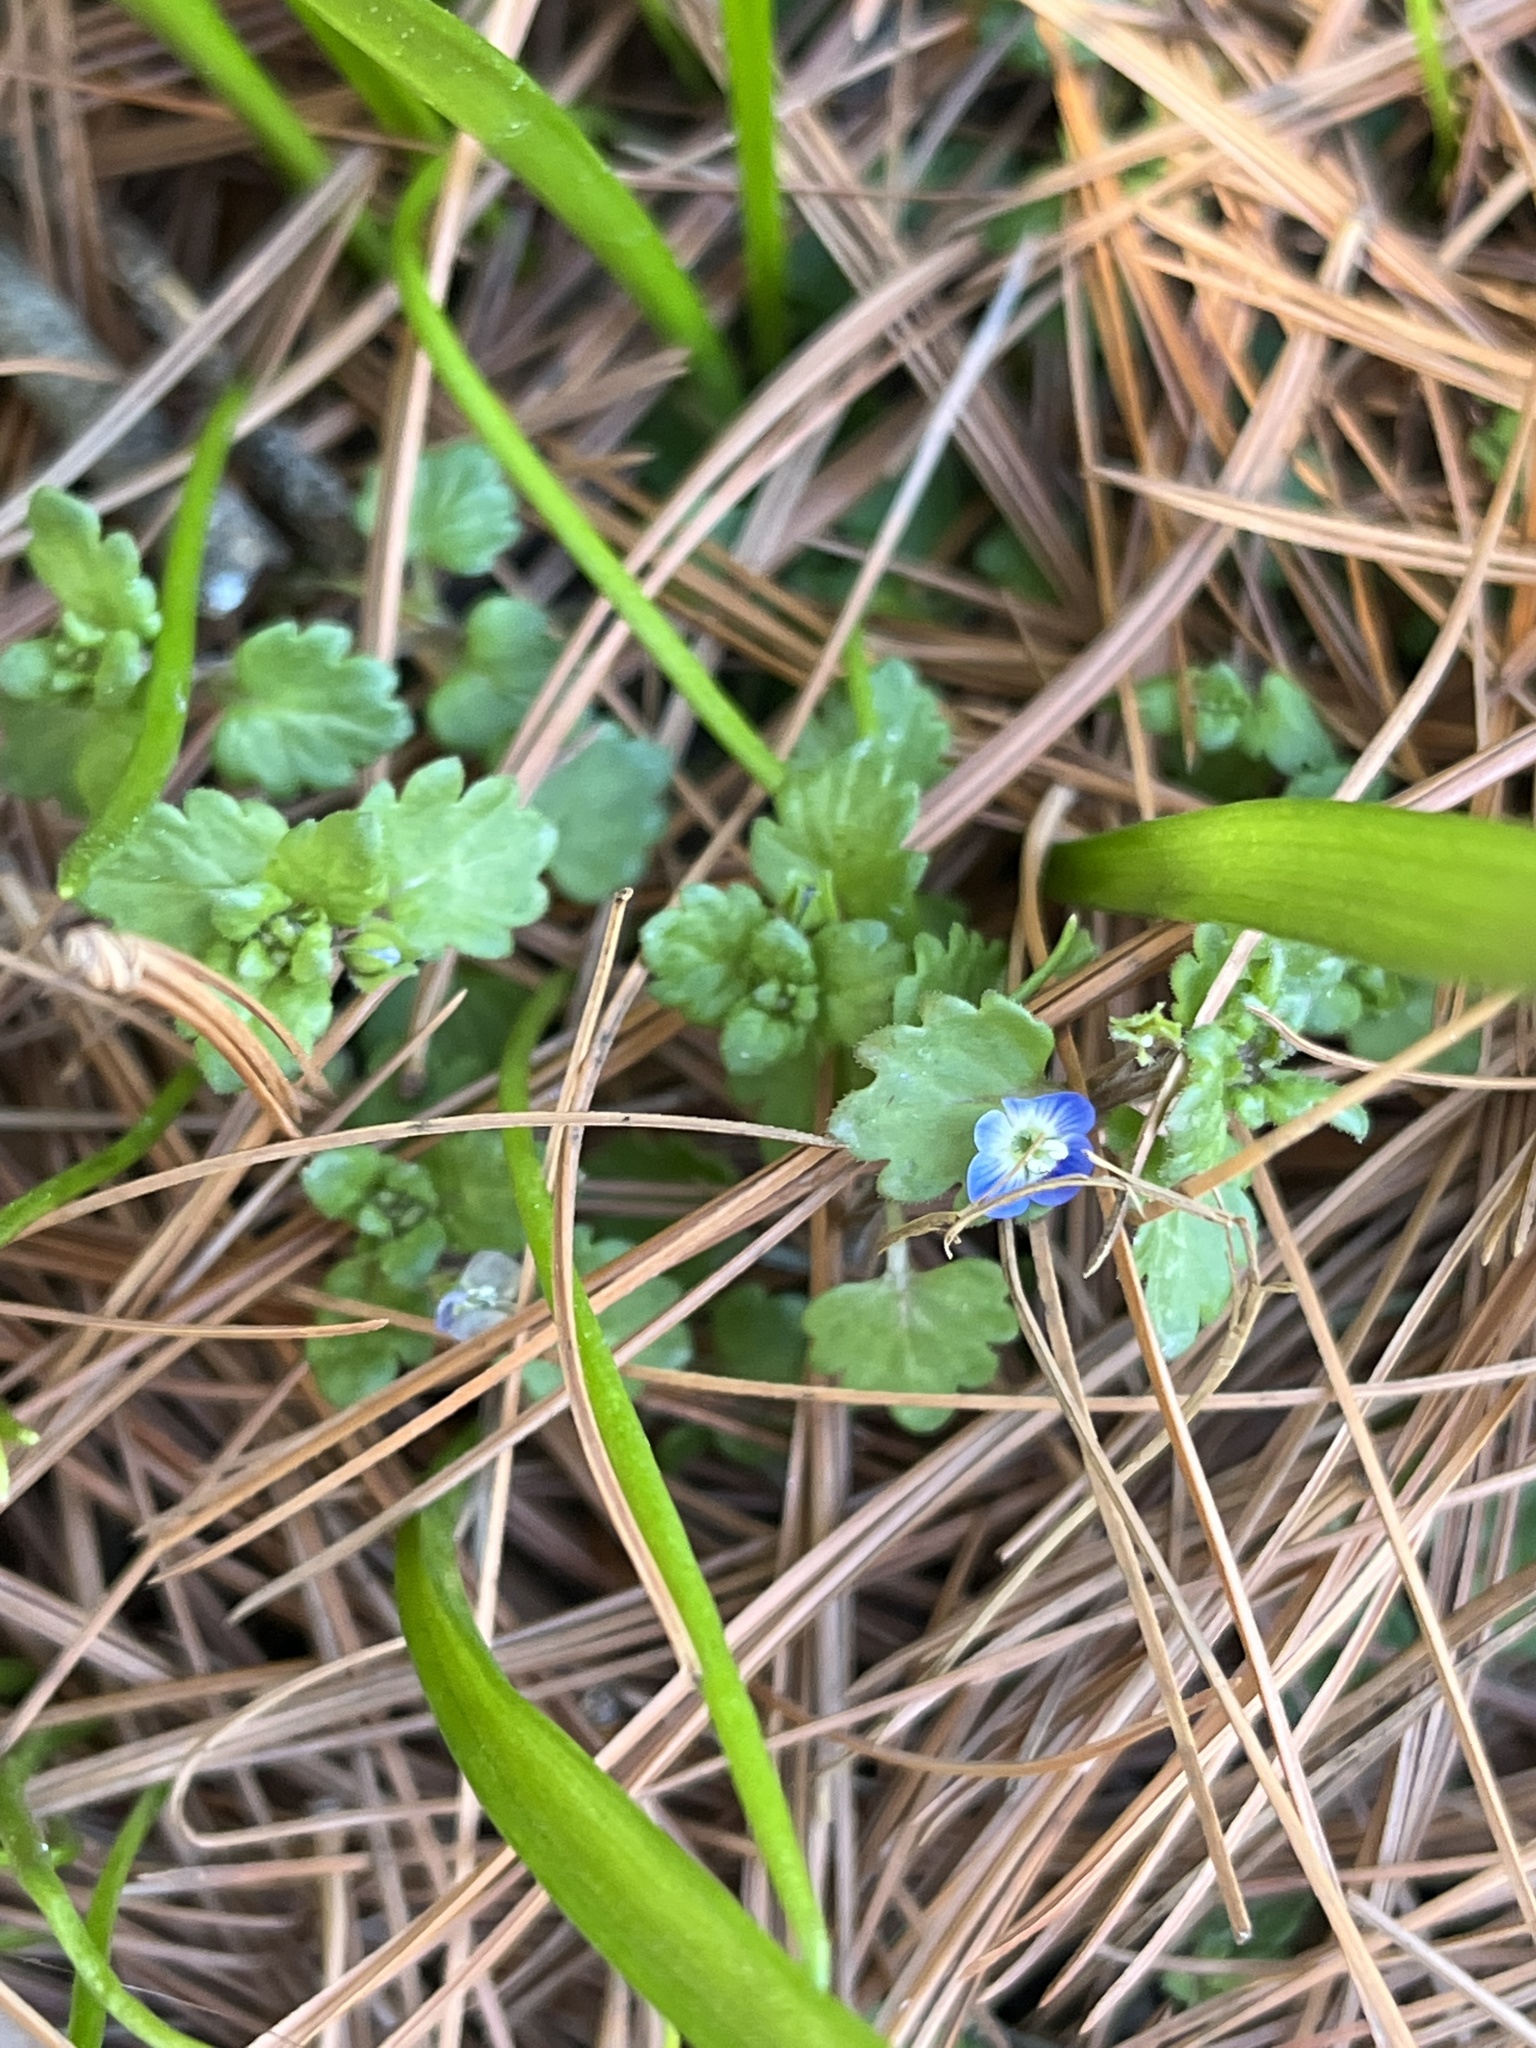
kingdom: Plantae
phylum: Tracheophyta
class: Magnoliopsida
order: Lamiales
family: Plantaginaceae
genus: Veronica
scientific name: Veronica polita
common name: Grey field-speedwell
